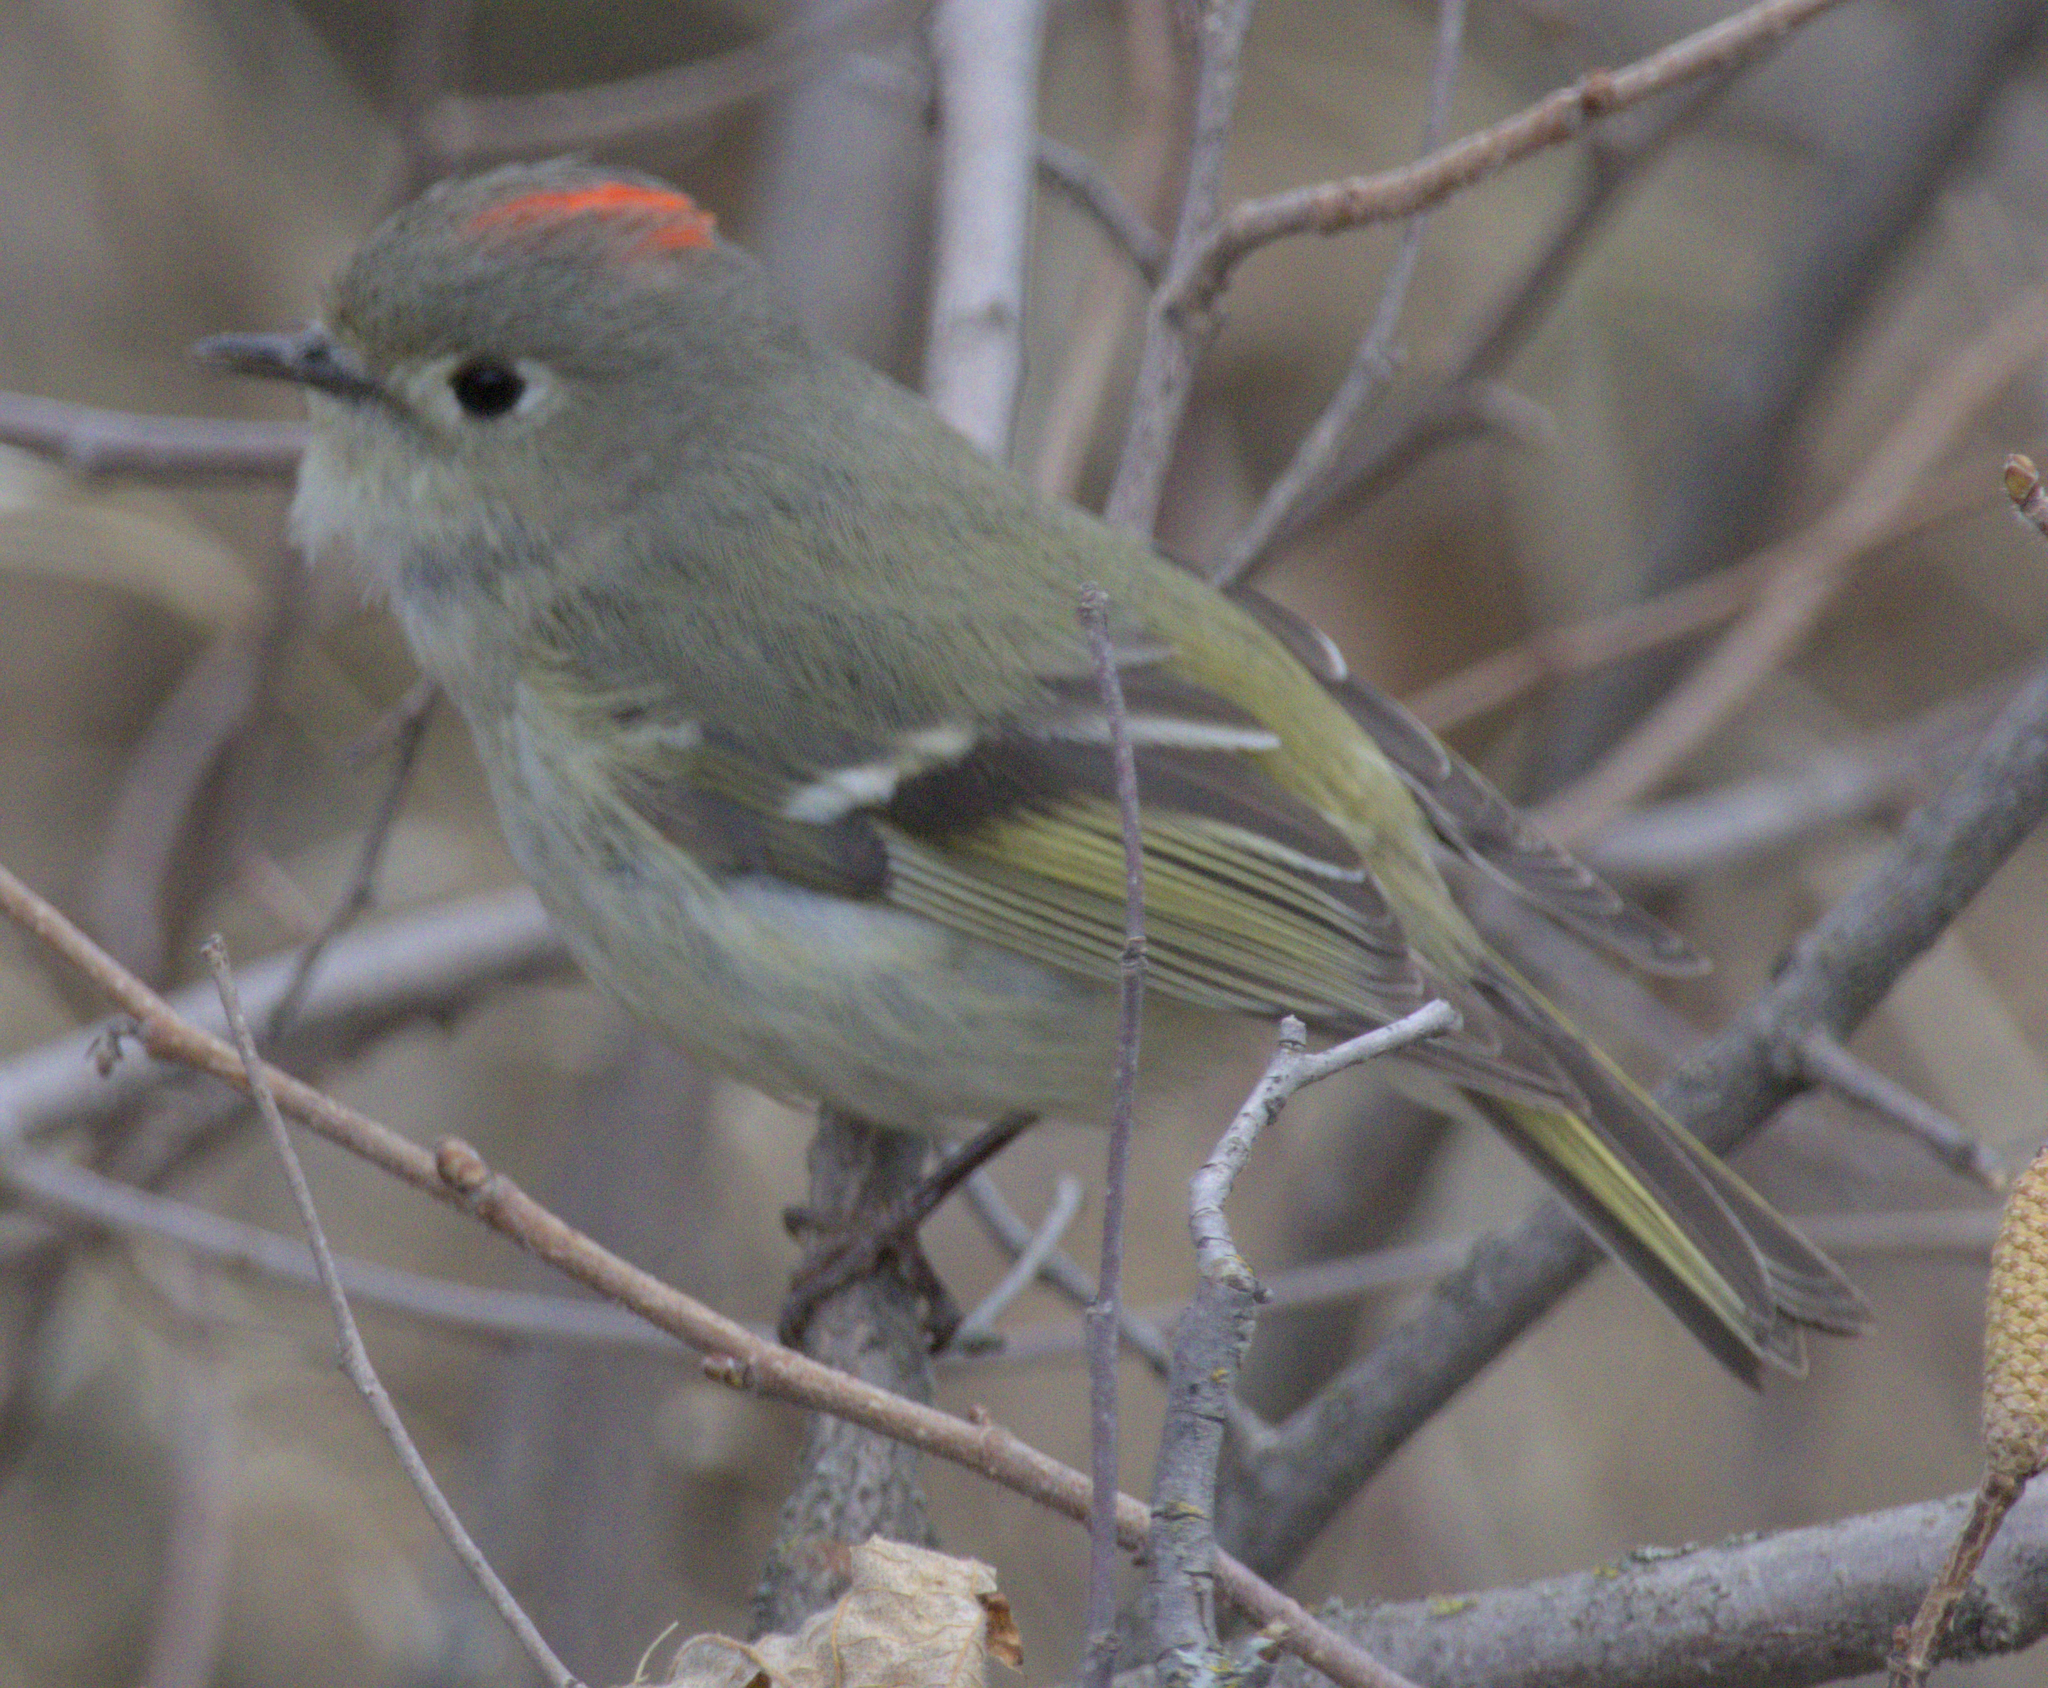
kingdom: Animalia
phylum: Chordata
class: Aves
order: Passeriformes
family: Regulidae
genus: Regulus
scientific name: Regulus calendula
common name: Ruby-crowned kinglet
